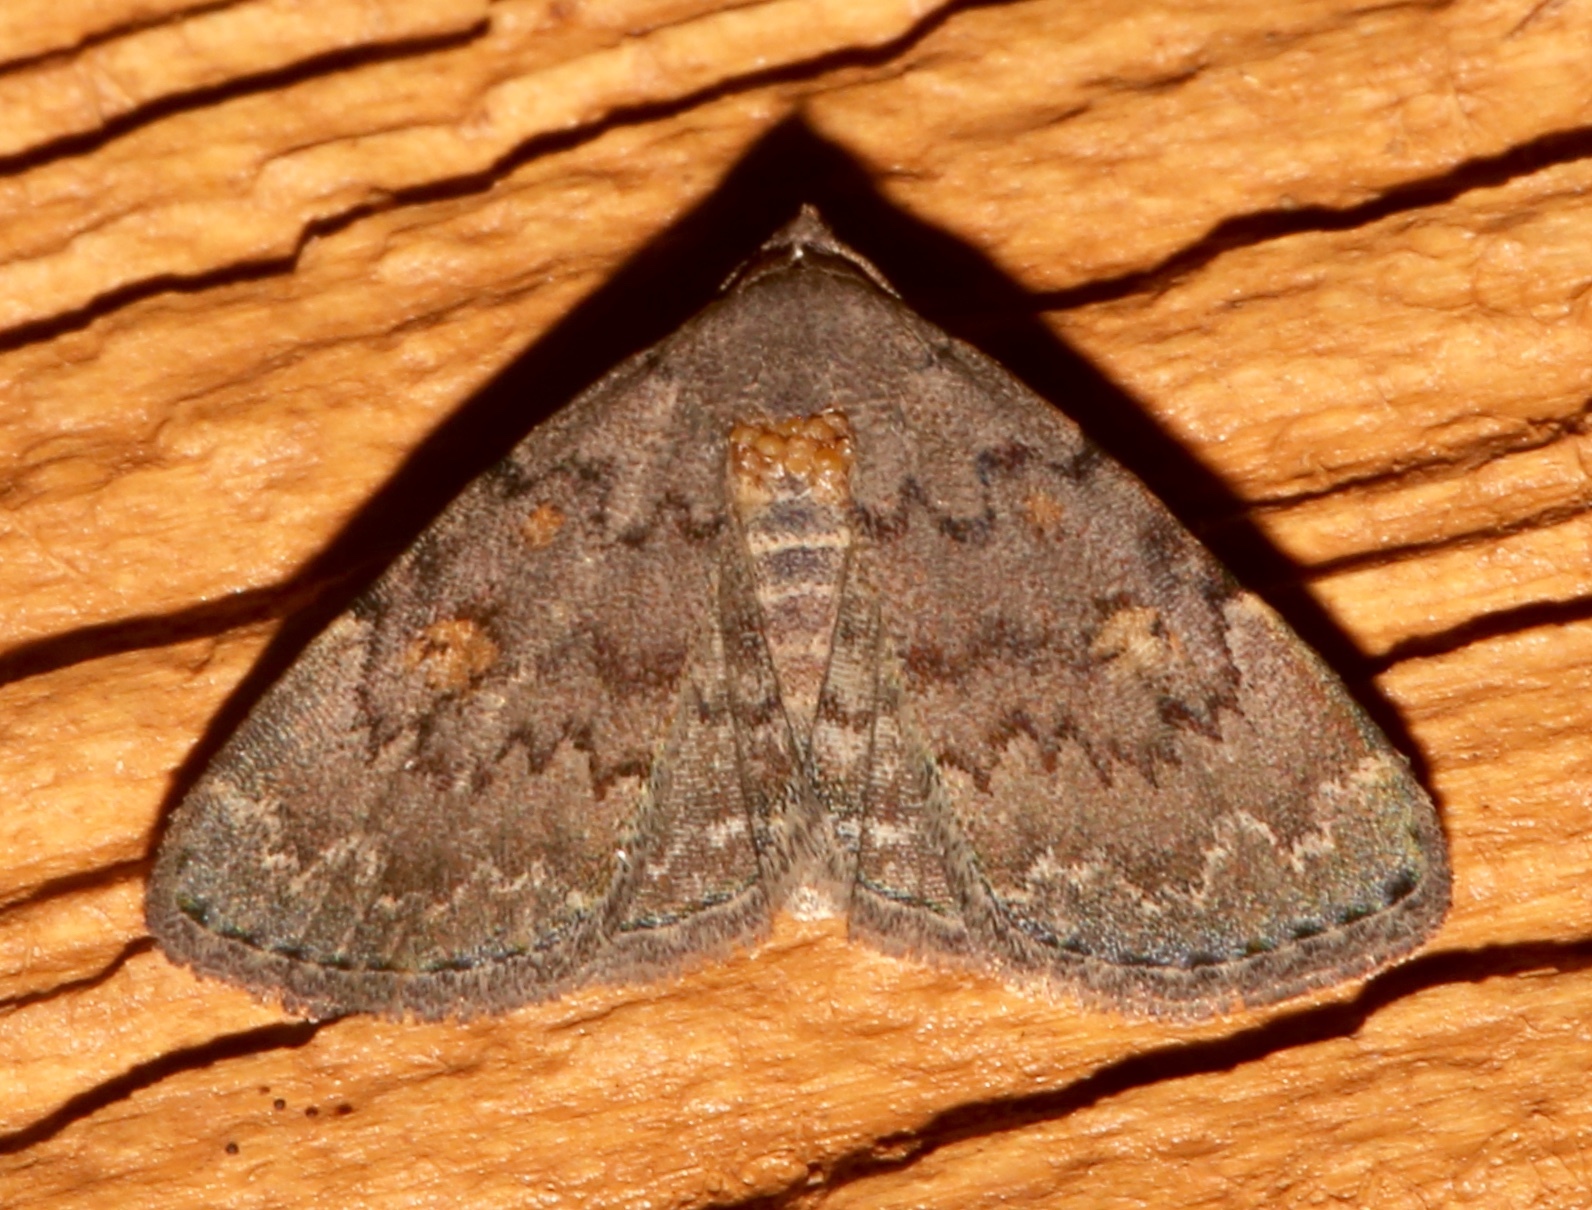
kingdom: Animalia
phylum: Arthropoda
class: Insecta
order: Lepidoptera
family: Erebidae
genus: Idia
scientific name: Idia aemula
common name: Common idia moth
